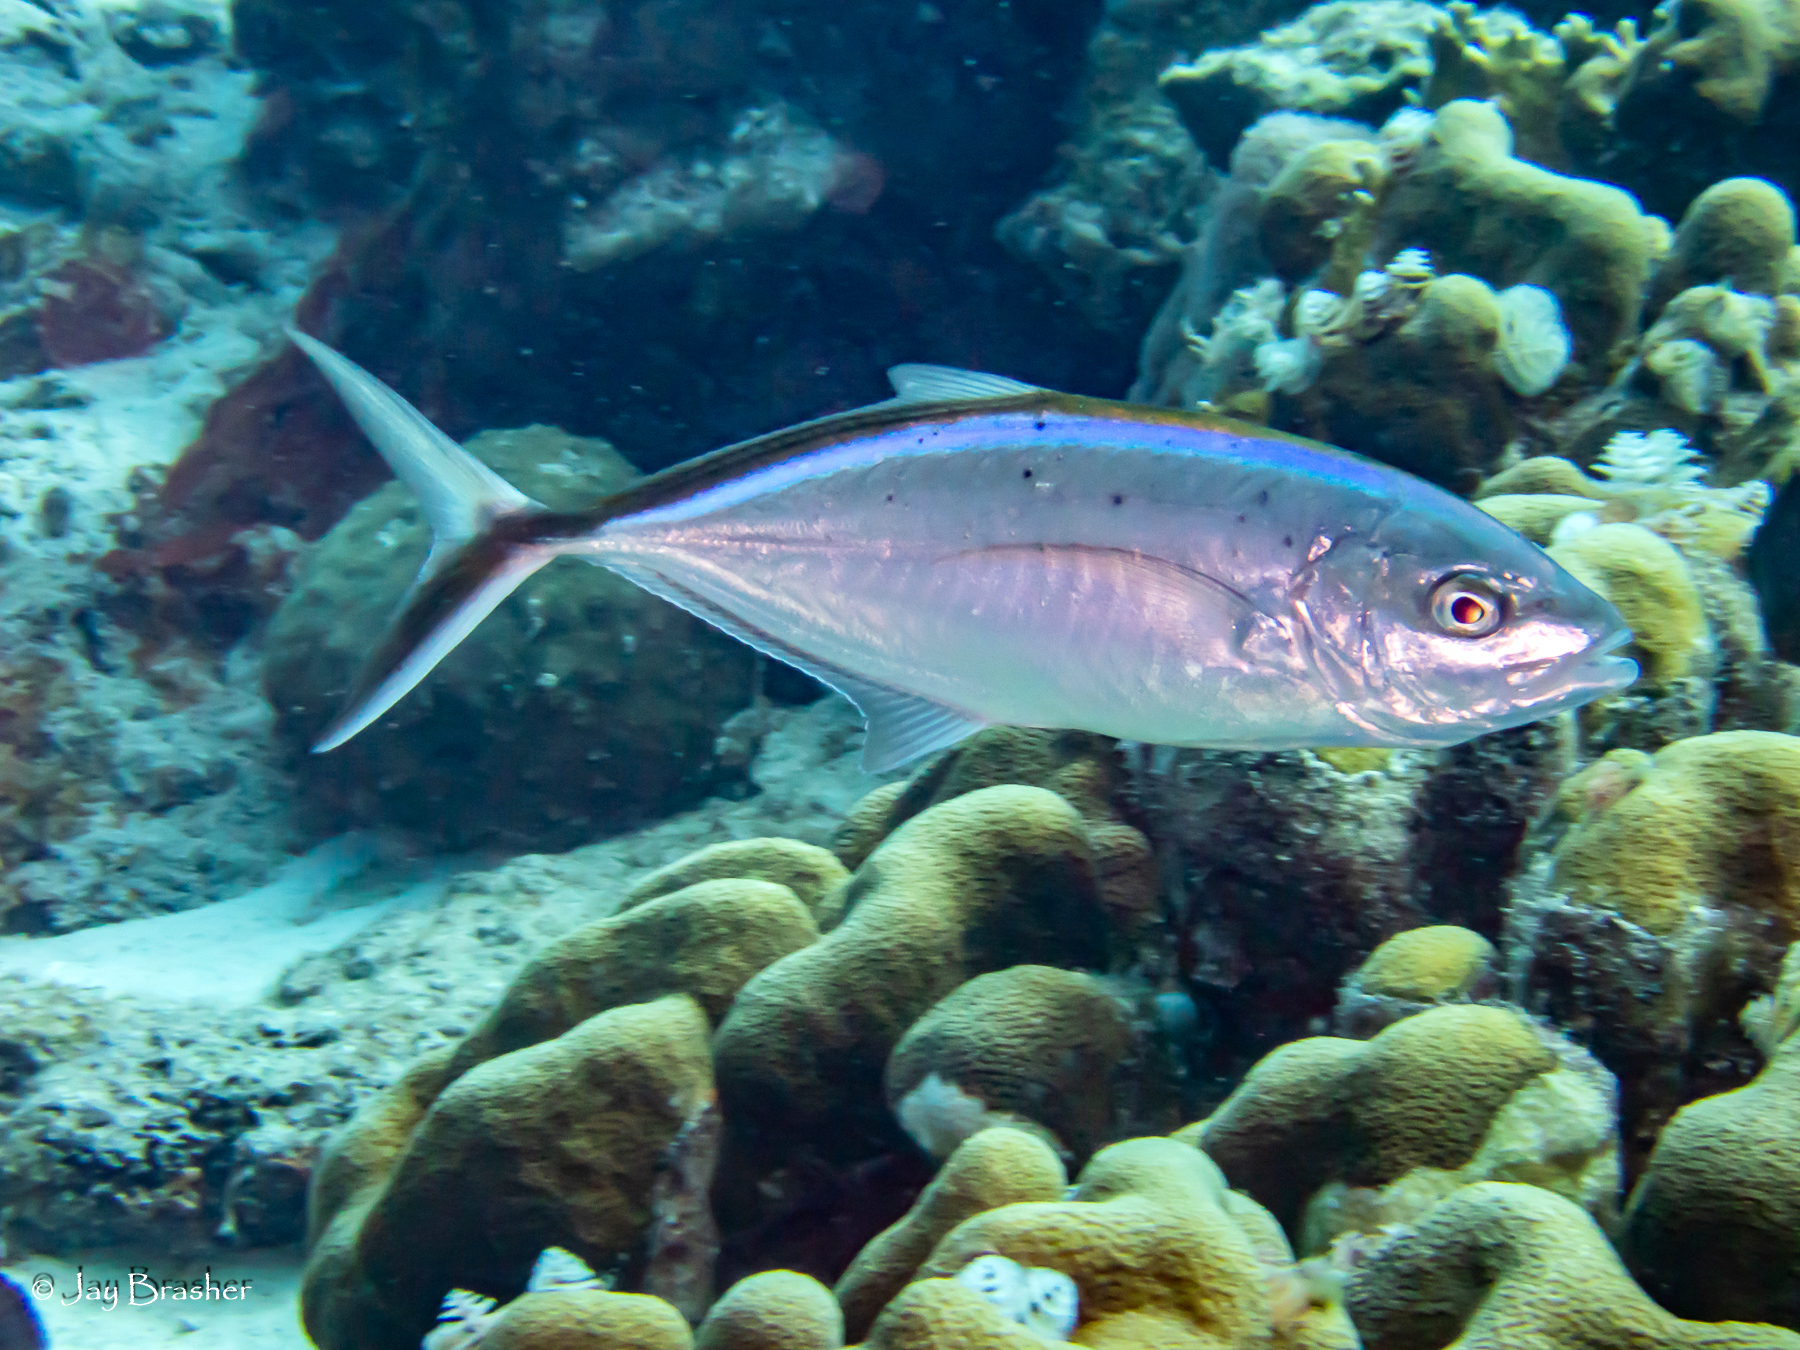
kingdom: Animalia
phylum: Cnidaria
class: Anthozoa
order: Scleractinia
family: Merulinidae
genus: Orbicella
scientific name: Orbicella annularis
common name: Boulder star coral
